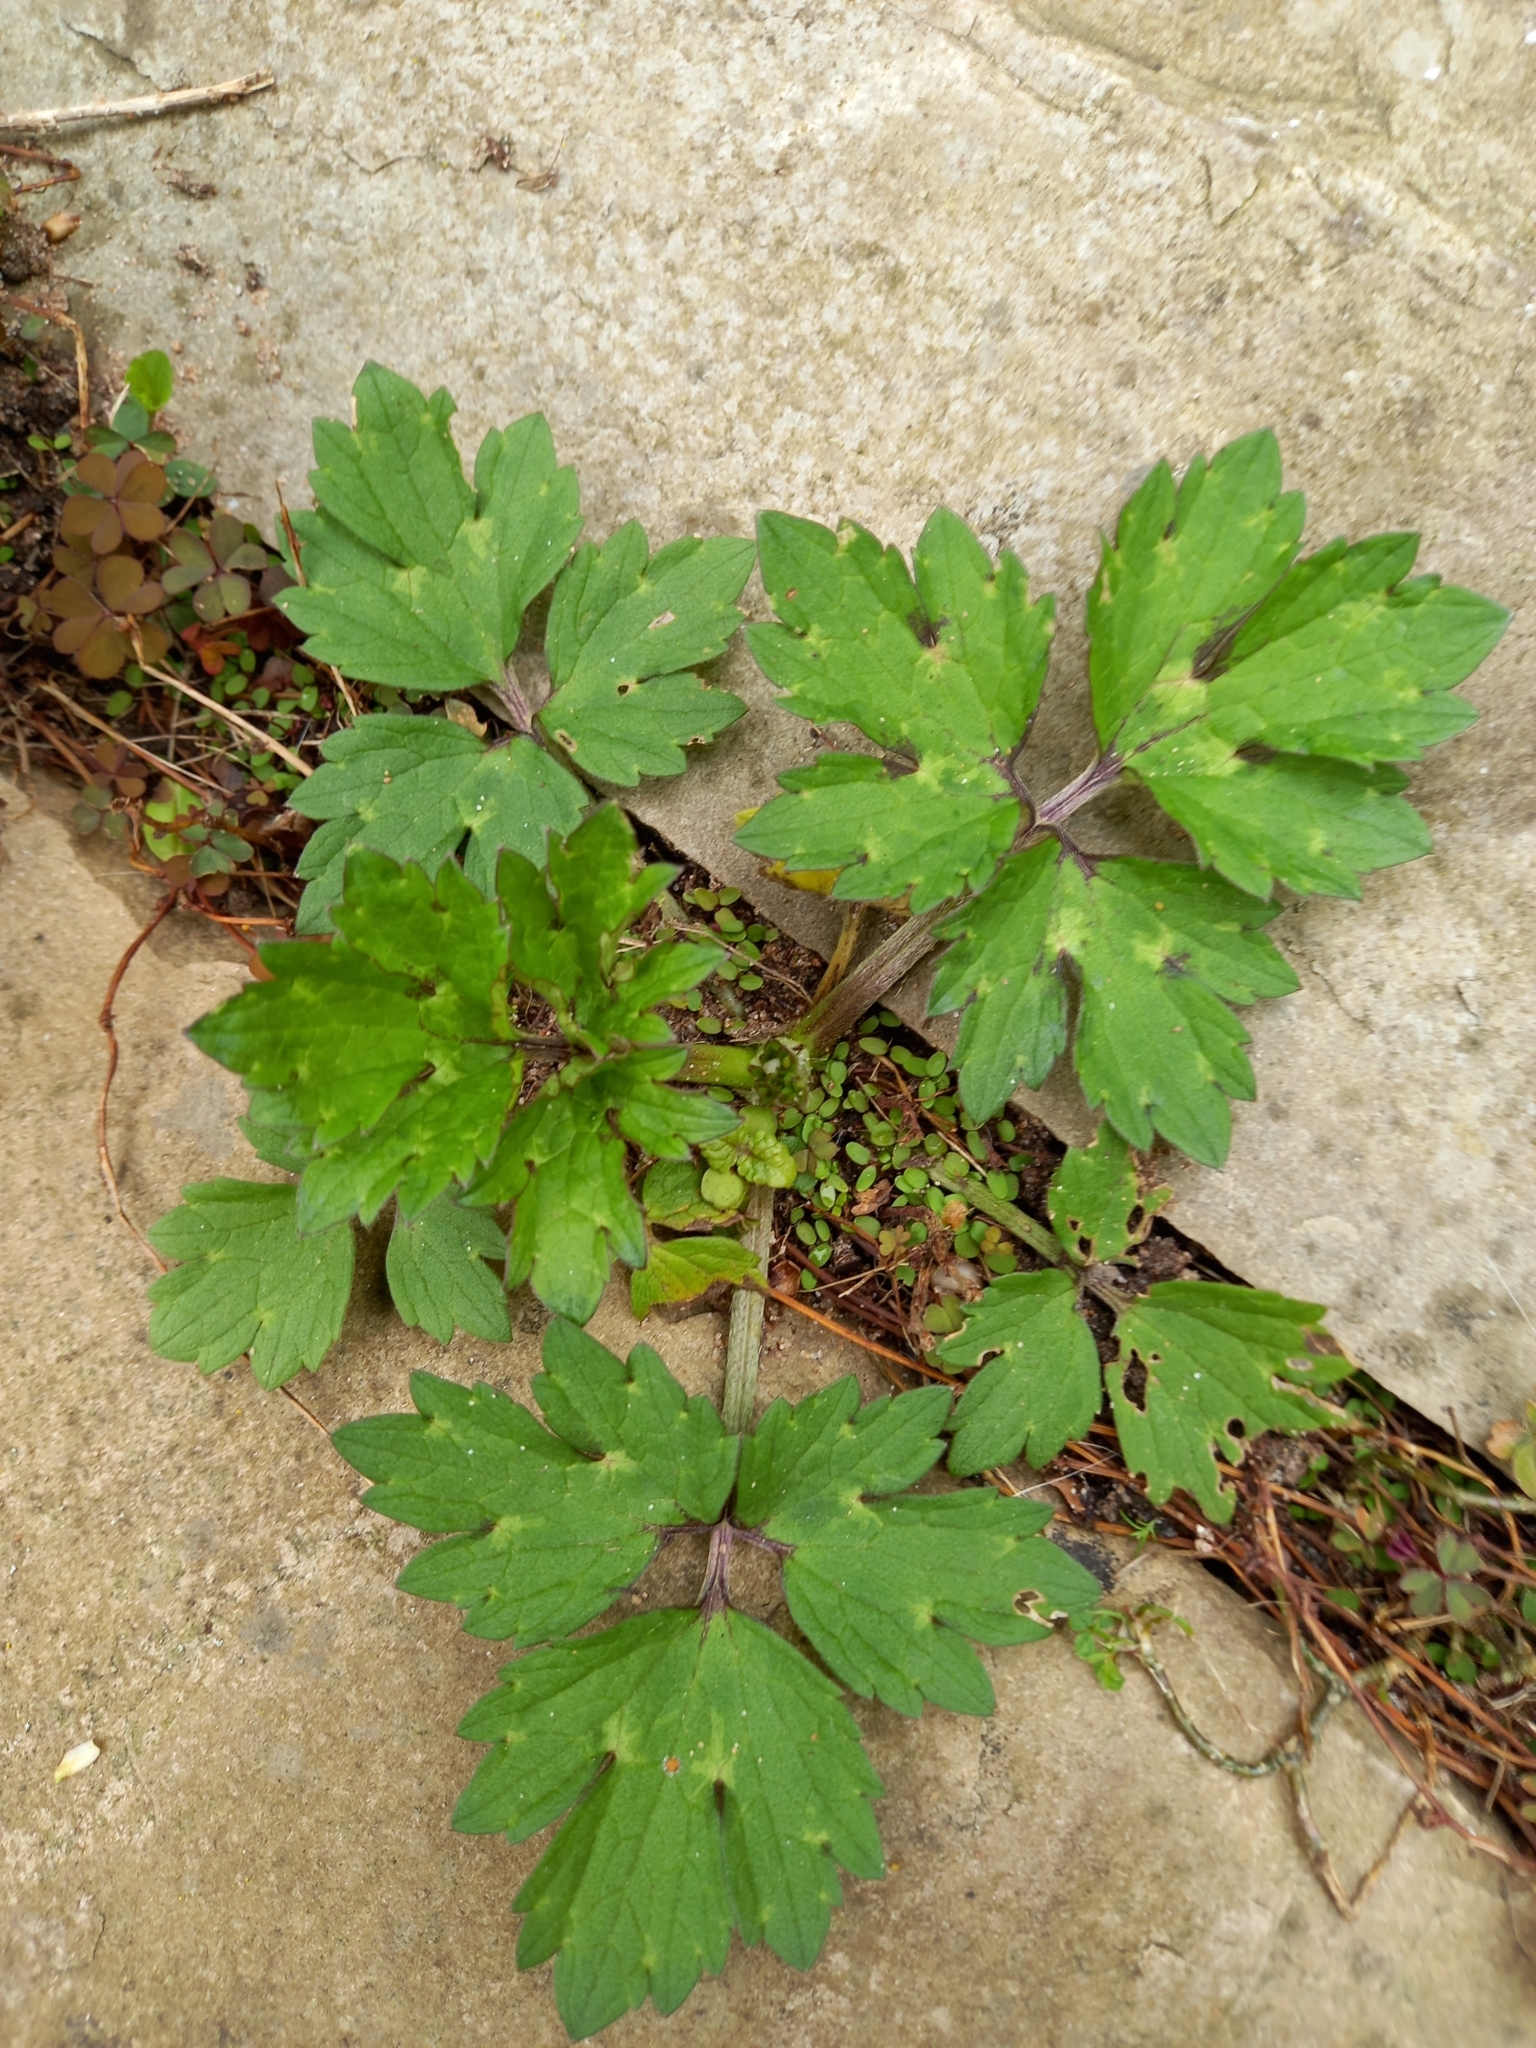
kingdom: Plantae
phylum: Tracheophyta
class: Magnoliopsida
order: Ranunculales
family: Ranunculaceae
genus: Ranunculus
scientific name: Ranunculus repens
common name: Creeping buttercup
